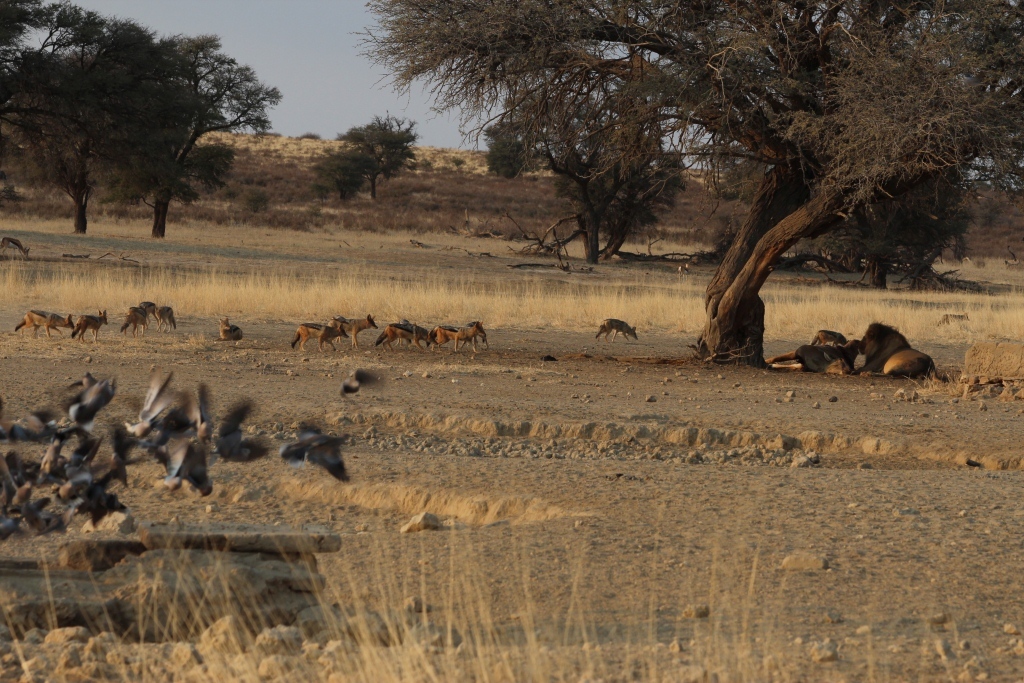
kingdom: Animalia
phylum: Chordata
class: Mammalia
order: Carnivora
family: Felidae
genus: Panthera
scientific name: Panthera leo
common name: Lion
